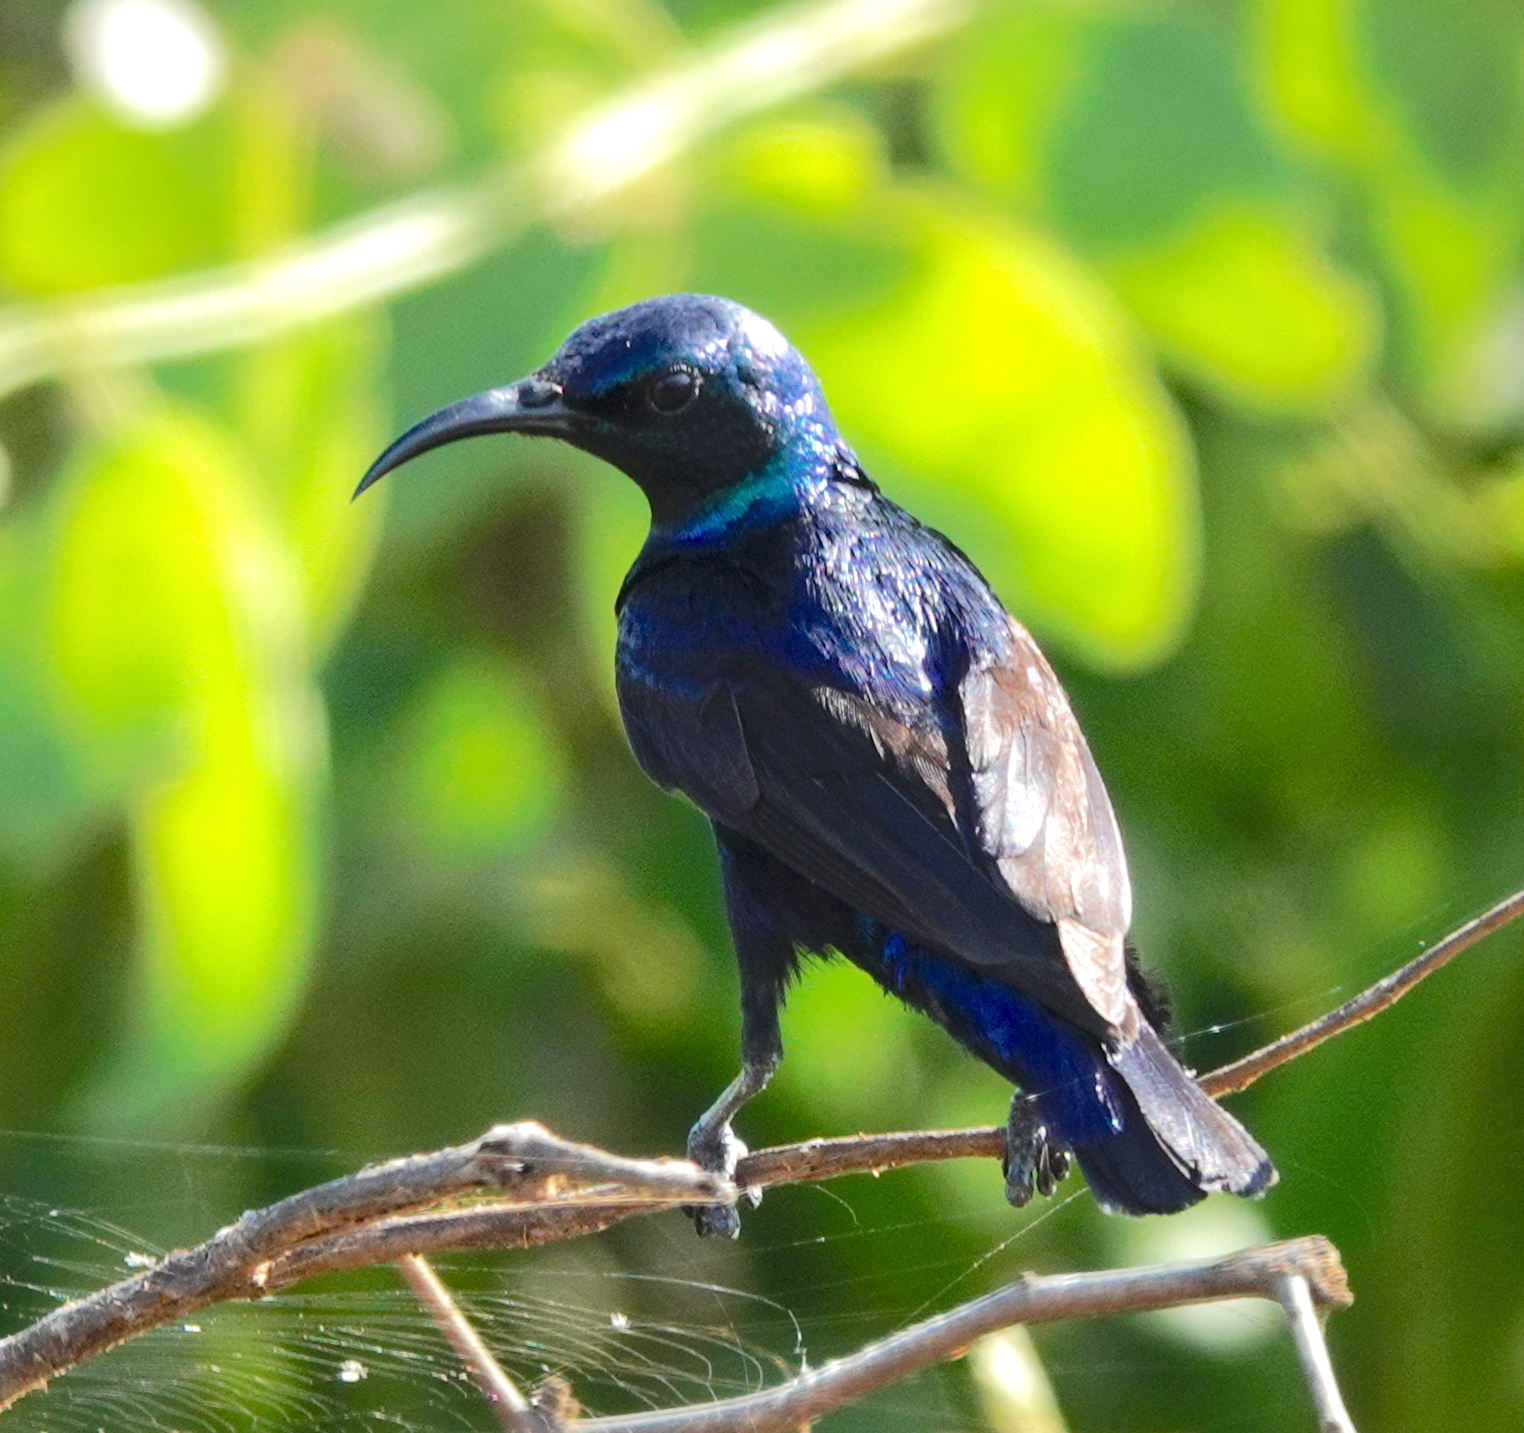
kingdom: Animalia
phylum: Chordata
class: Aves
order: Passeriformes
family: Nectariniidae
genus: Cinnyris
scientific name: Cinnyris asiaticus
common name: Purple sunbird
